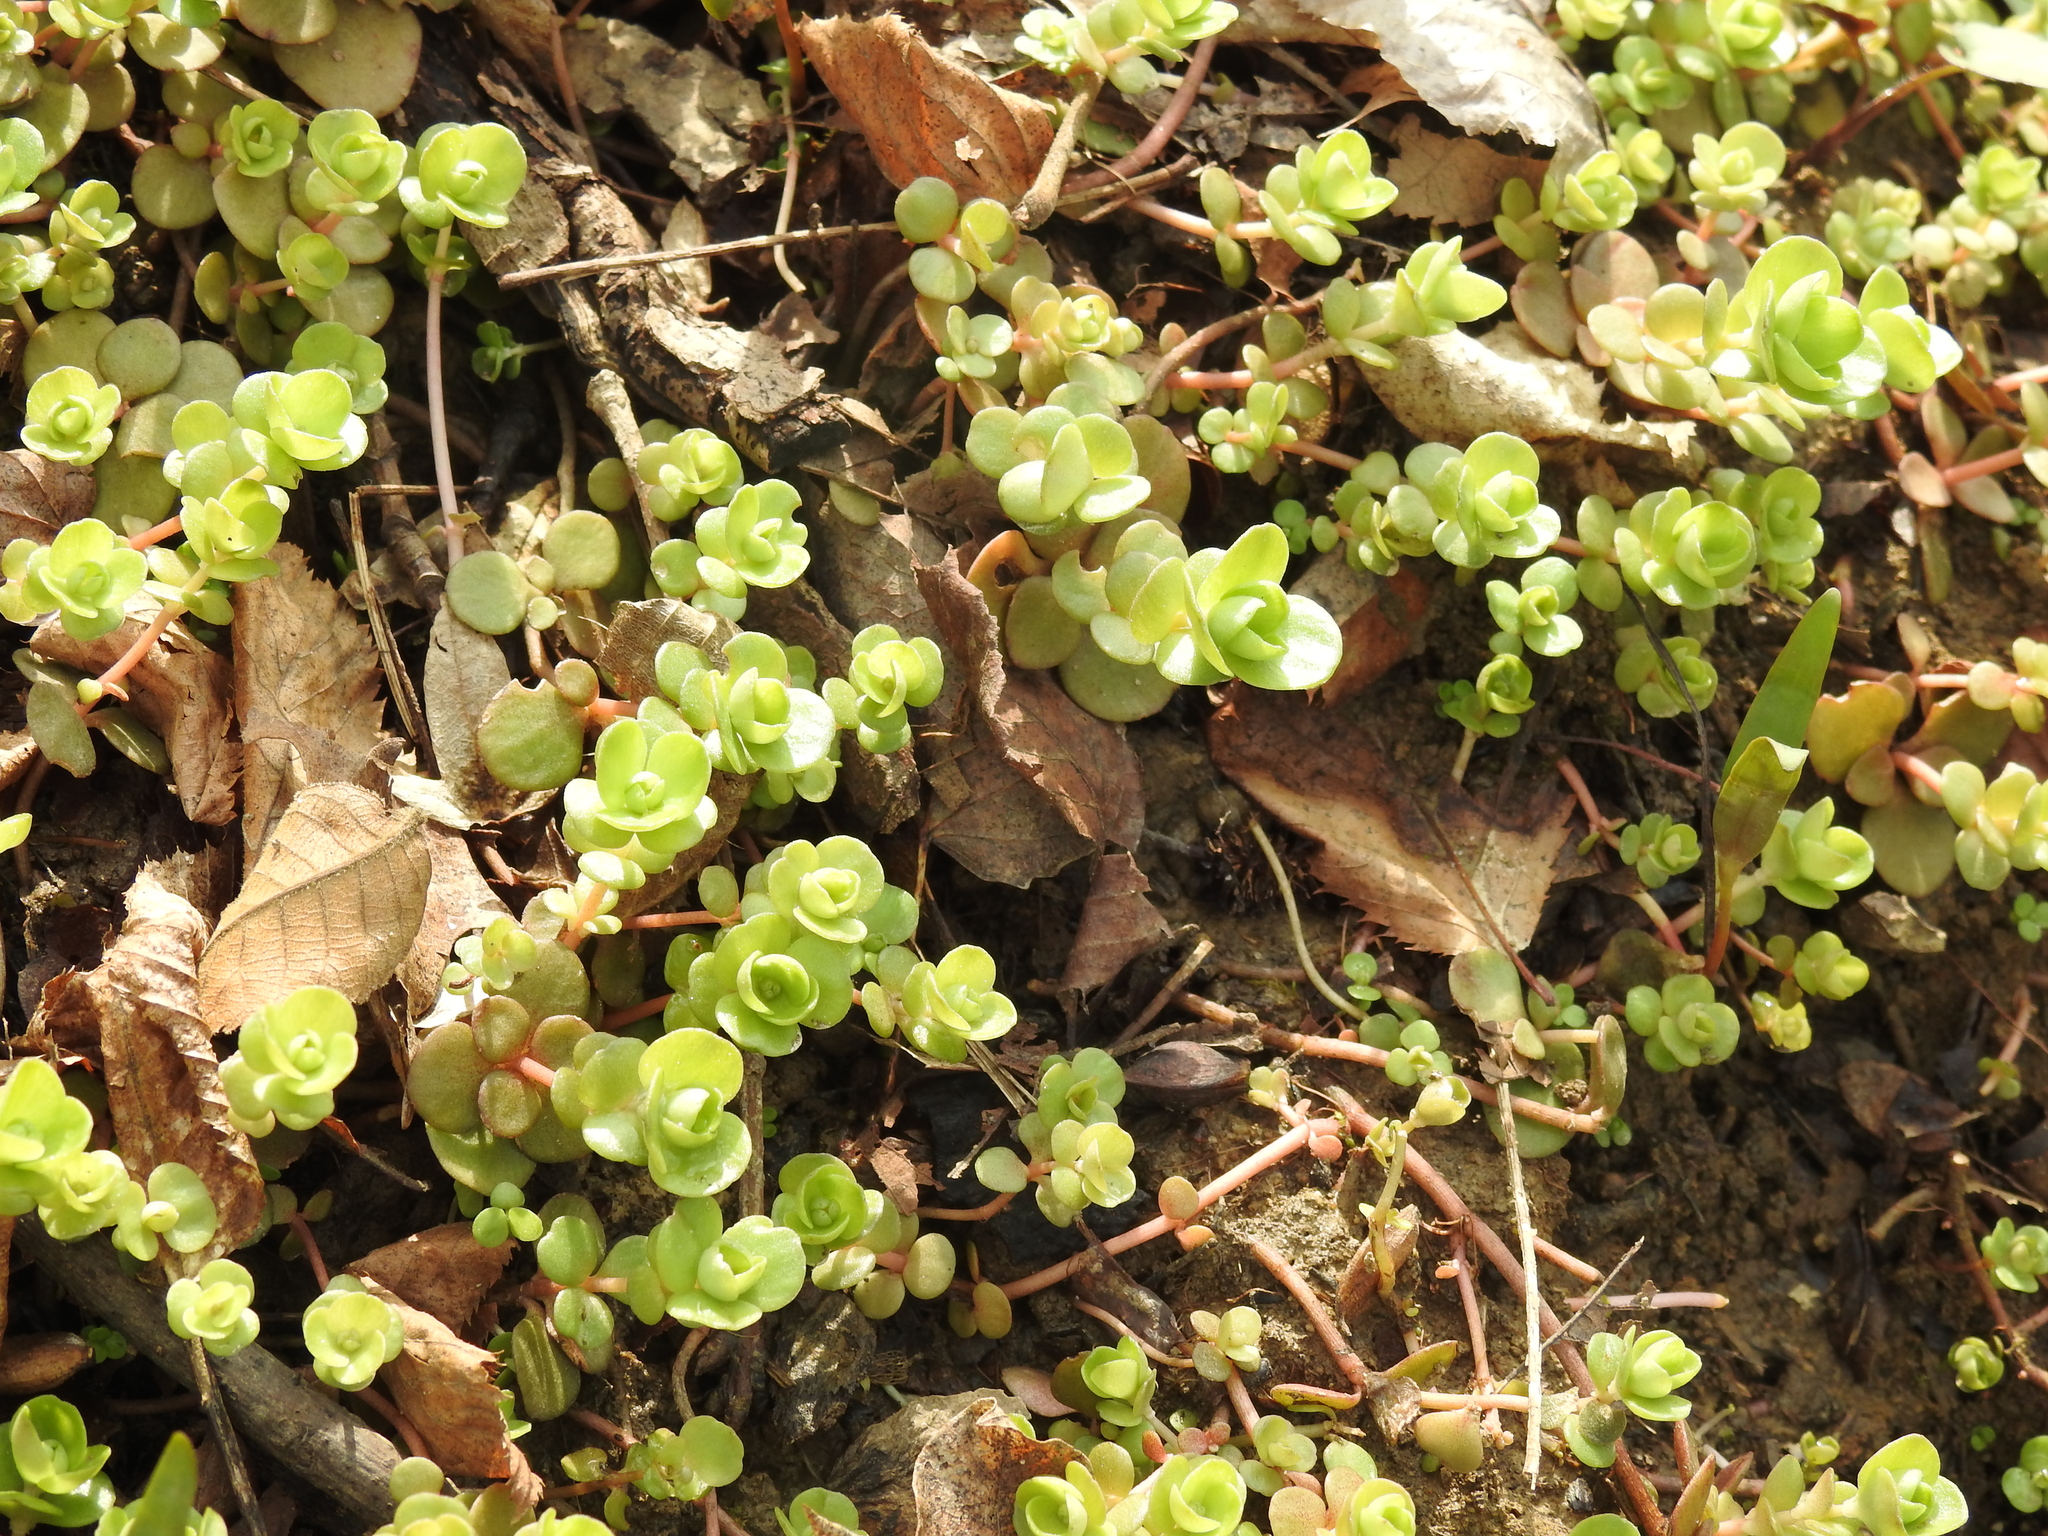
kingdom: Plantae
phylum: Tracheophyta
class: Magnoliopsida
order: Saxifragales
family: Crassulaceae
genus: Sedum
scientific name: Sedum ternatum
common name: Wild stonecrop
